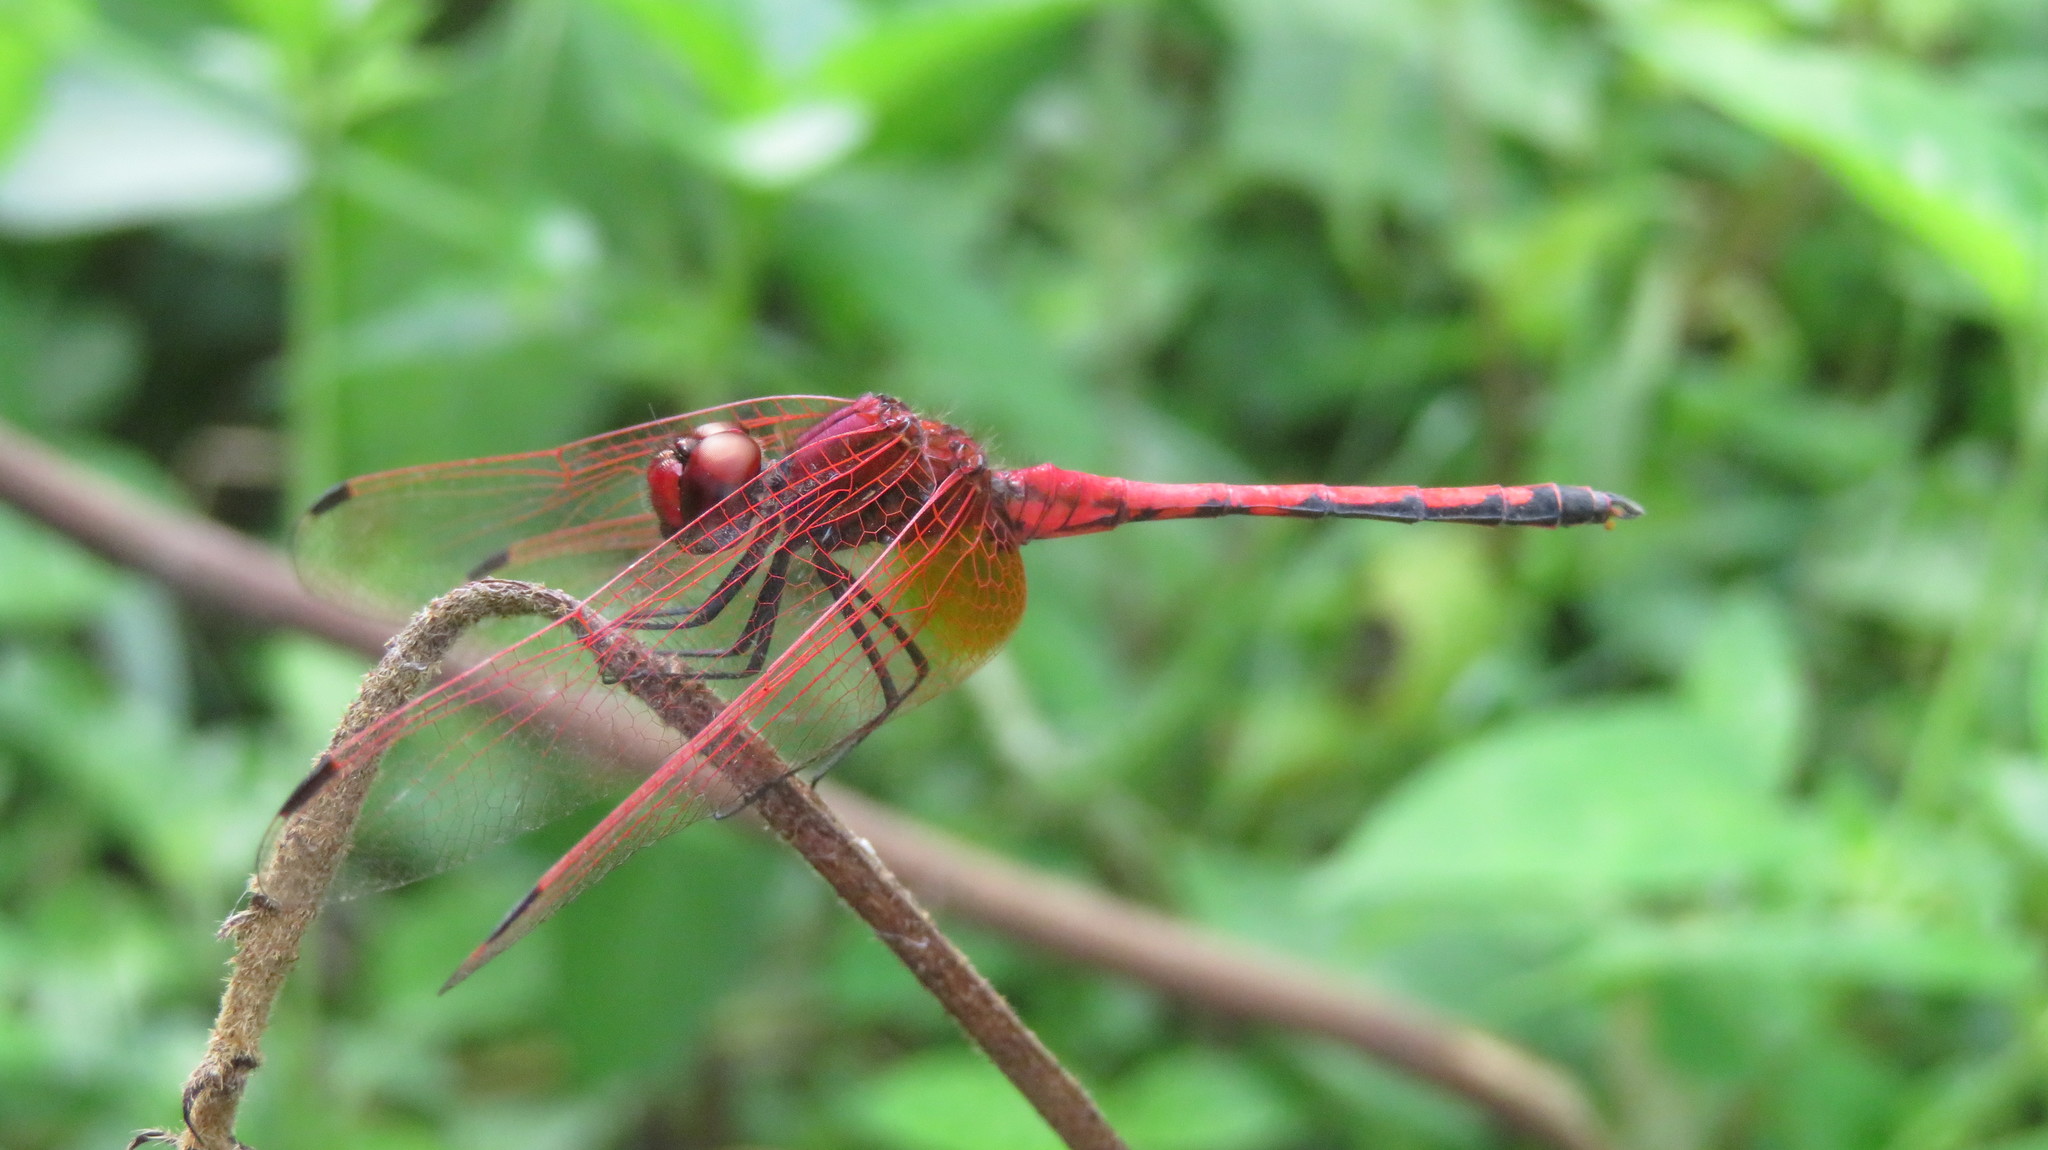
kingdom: Animalia
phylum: Arthropoda
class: Insecta
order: Odonata
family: Libellulidae
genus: Trithemis
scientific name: Trithemis arteriosa
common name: Red-veined dropwing
